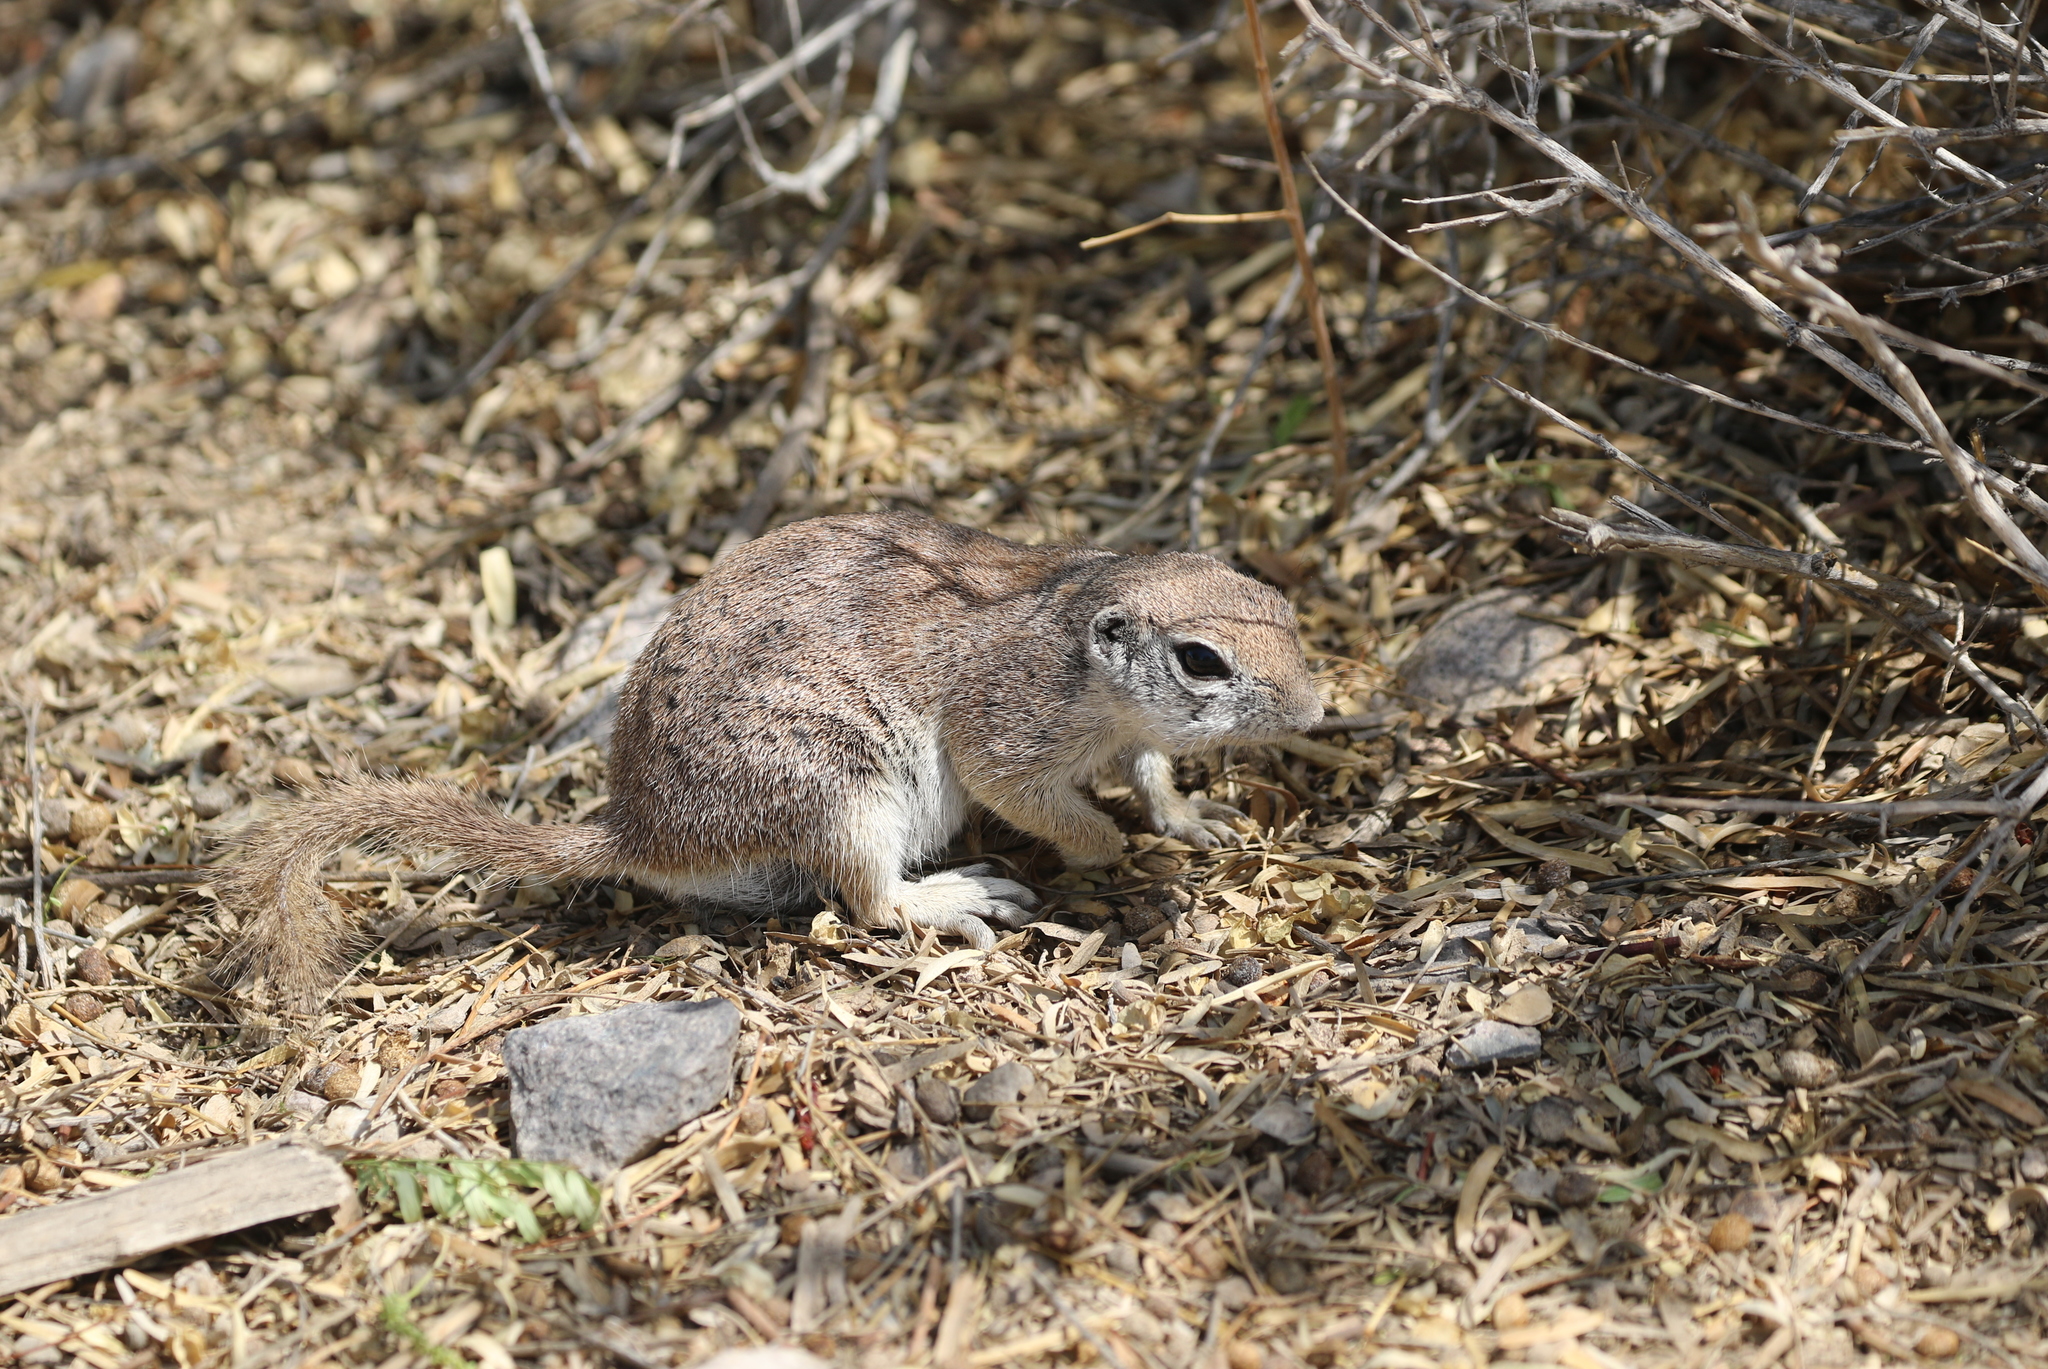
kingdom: Animalia
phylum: Chordata
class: Mammalia
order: Rodentia
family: Sciuridae
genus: Xerospermophilus
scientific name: Xerospermophilus tereticaudus
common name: Round-tailed ground squirrel
